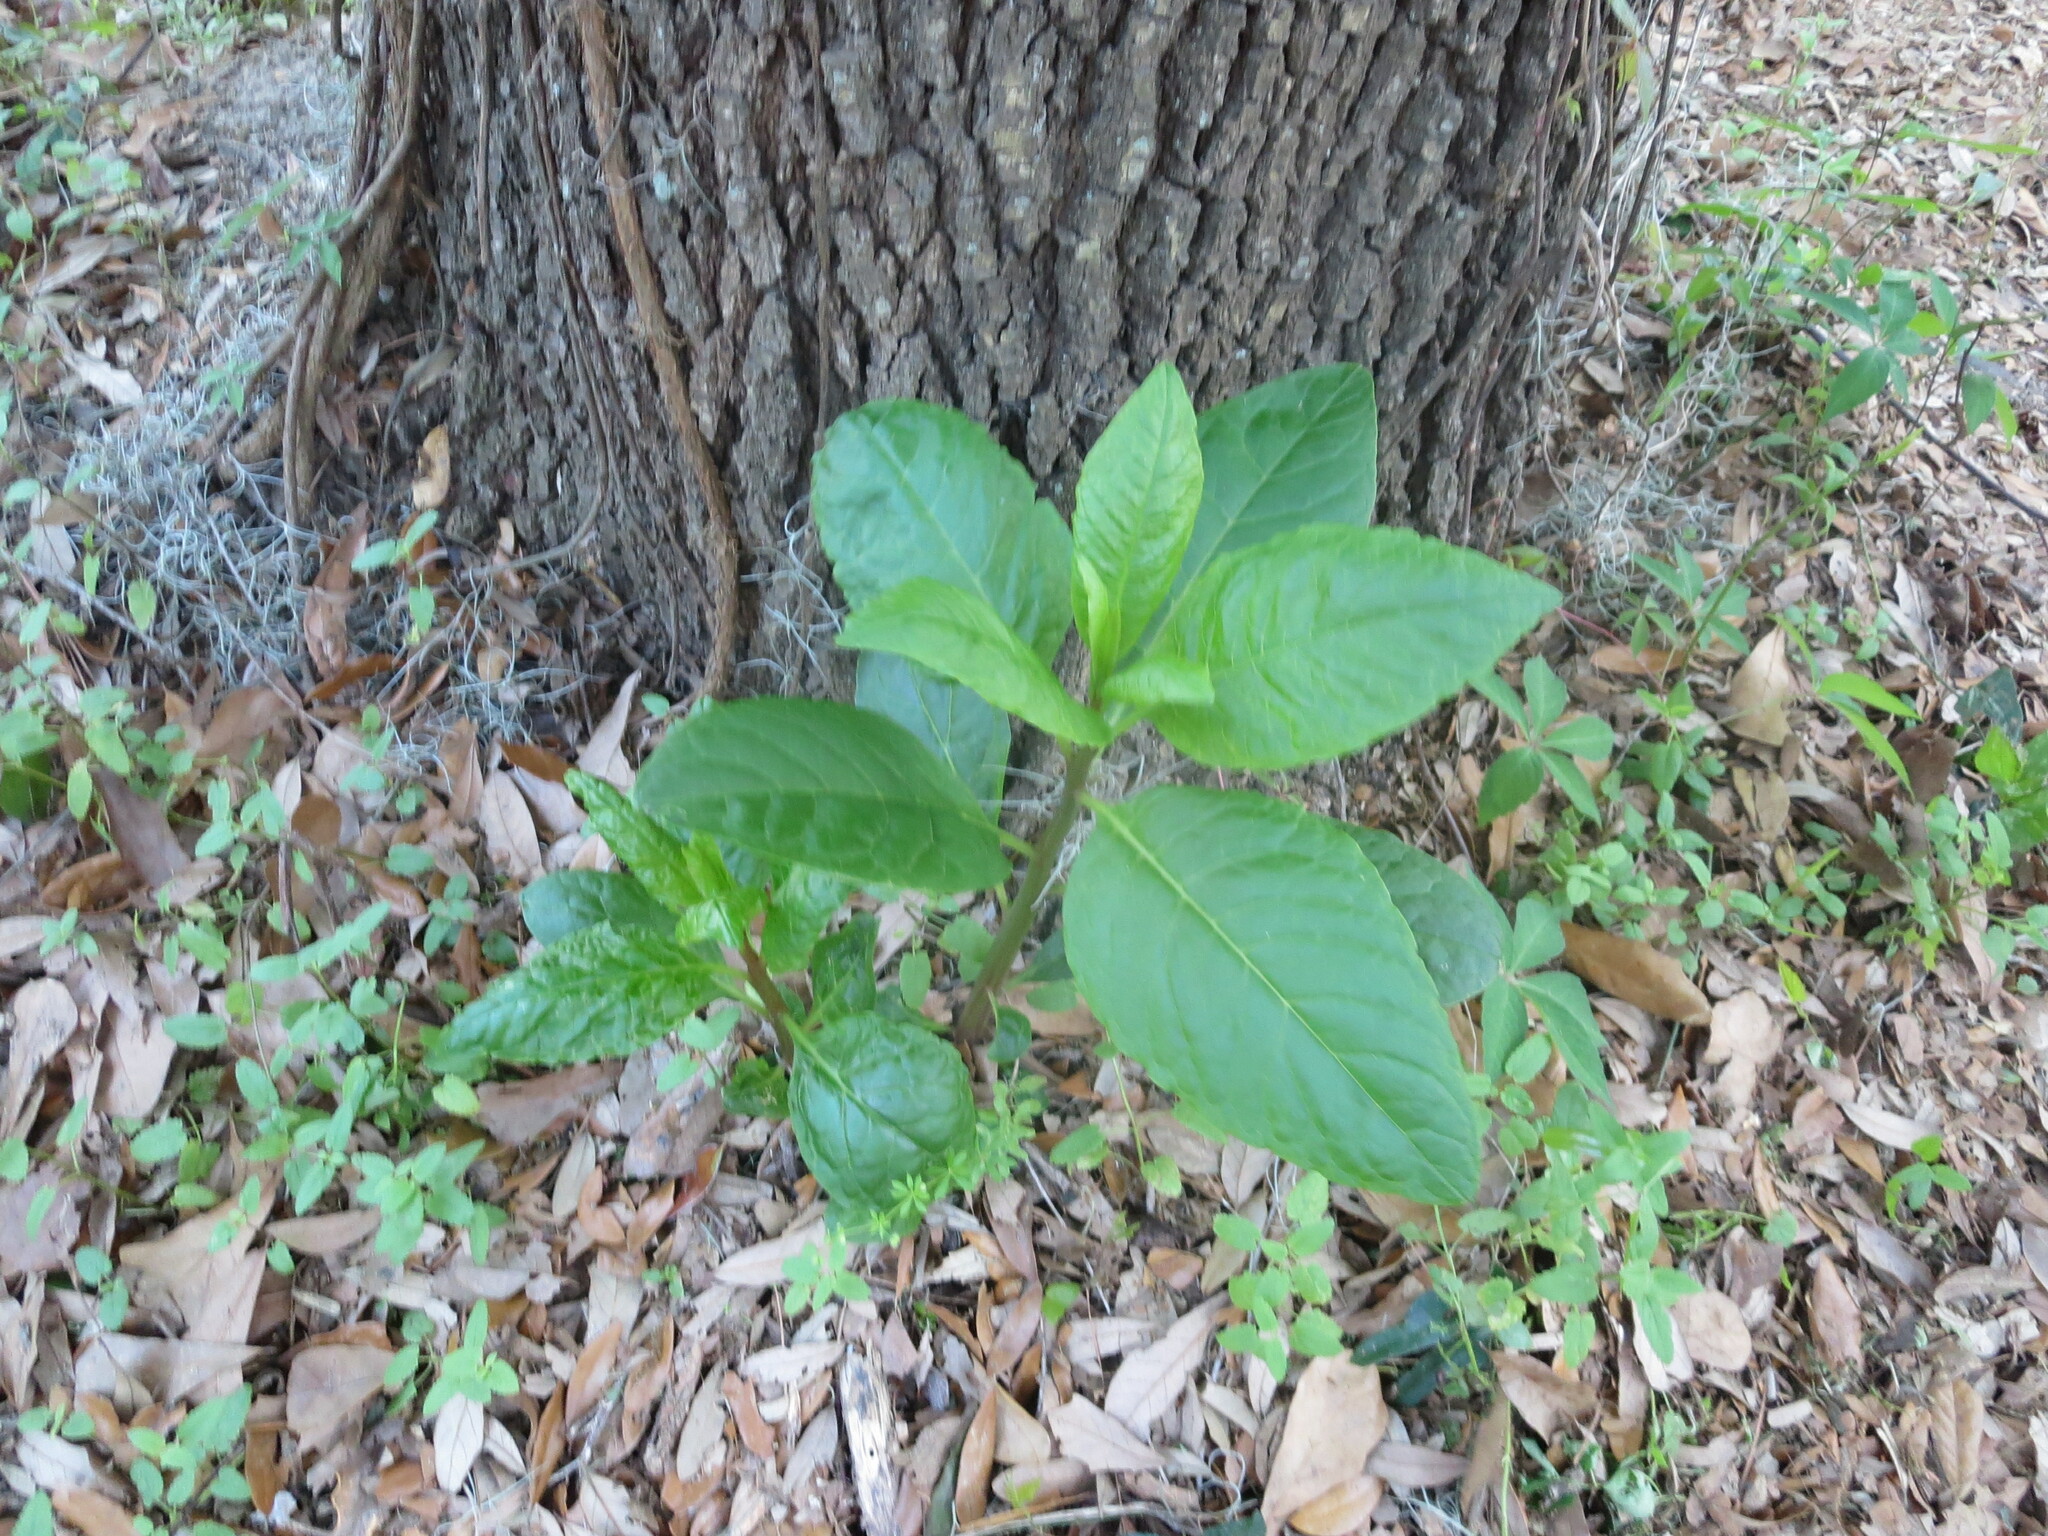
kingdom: Plantae
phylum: Tracheophyta
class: Magnoliopsida
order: Caryophyllales
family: Phytolaccaceae
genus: Phytolacca
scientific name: Phytolacca americana
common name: American pokeweed
